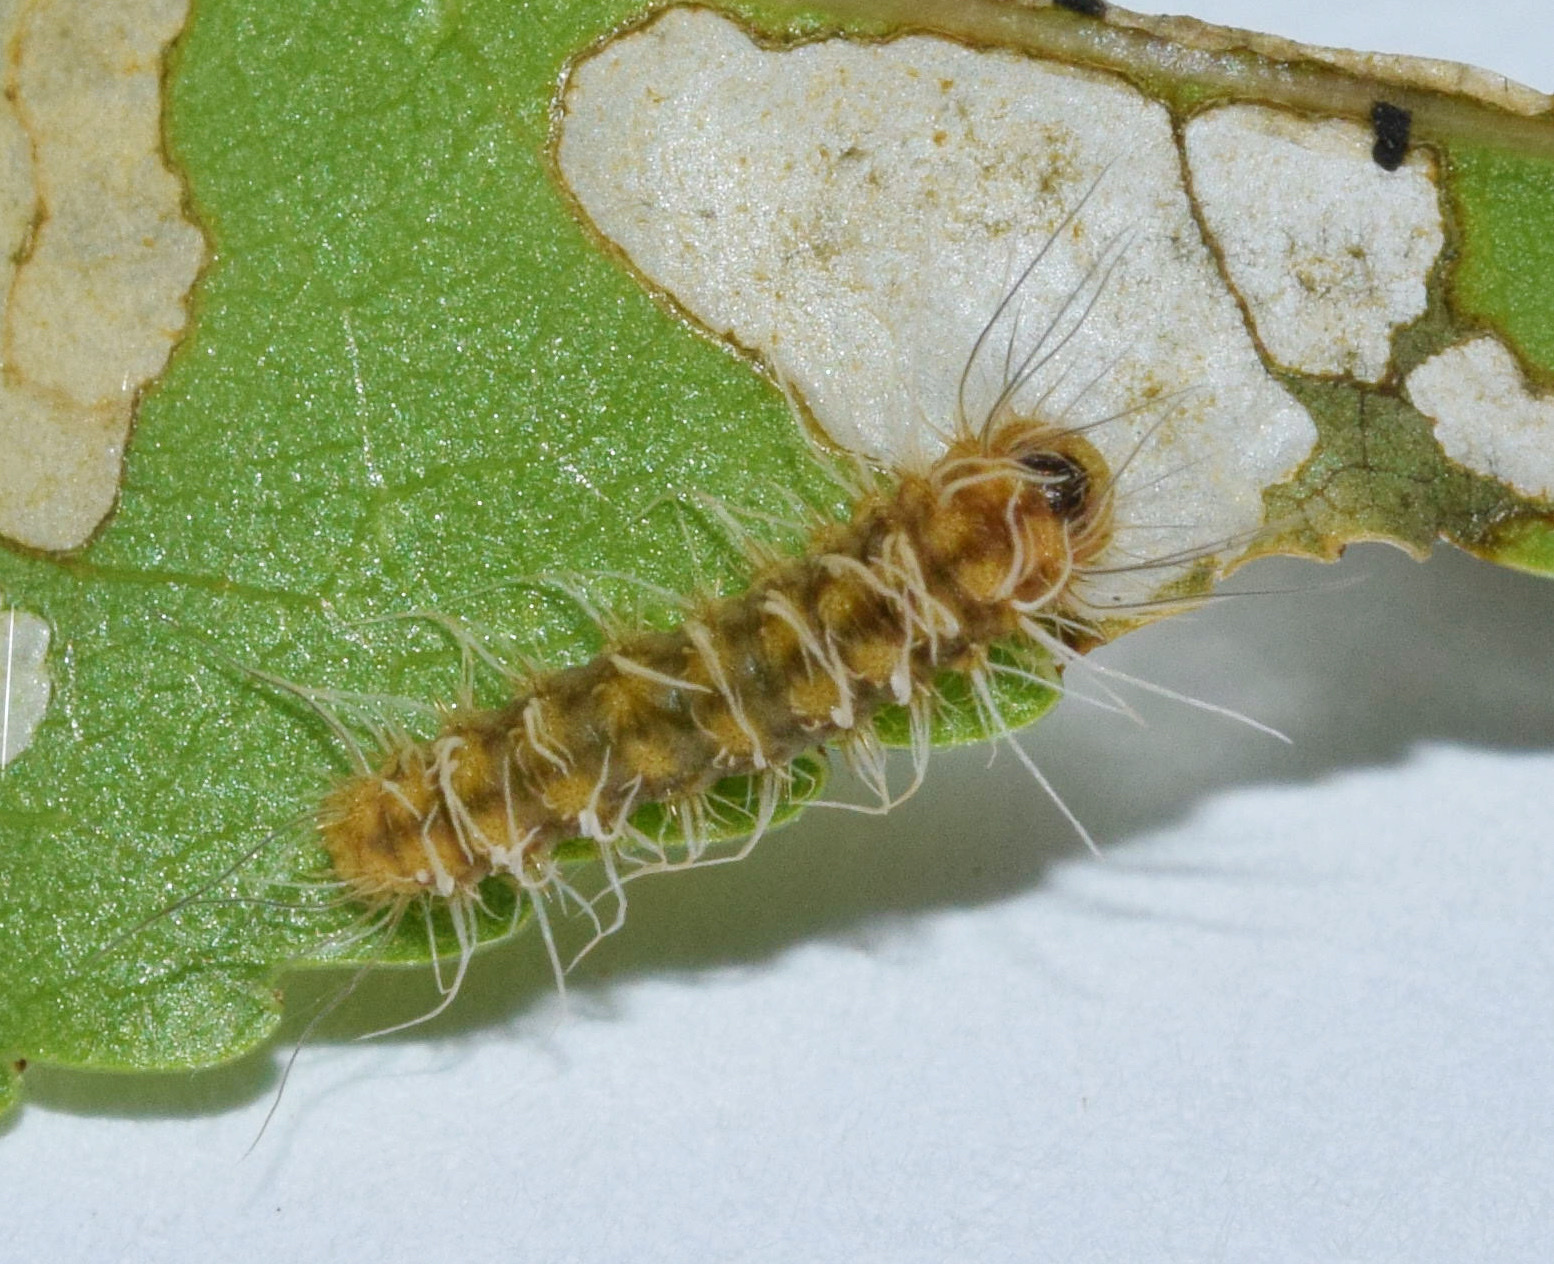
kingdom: Animalia
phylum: Arthropoda
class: Insecta
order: Lepidoptera
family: Himantopteridae
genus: Anamoeotes
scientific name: Anamoeotes nigrivenosus
